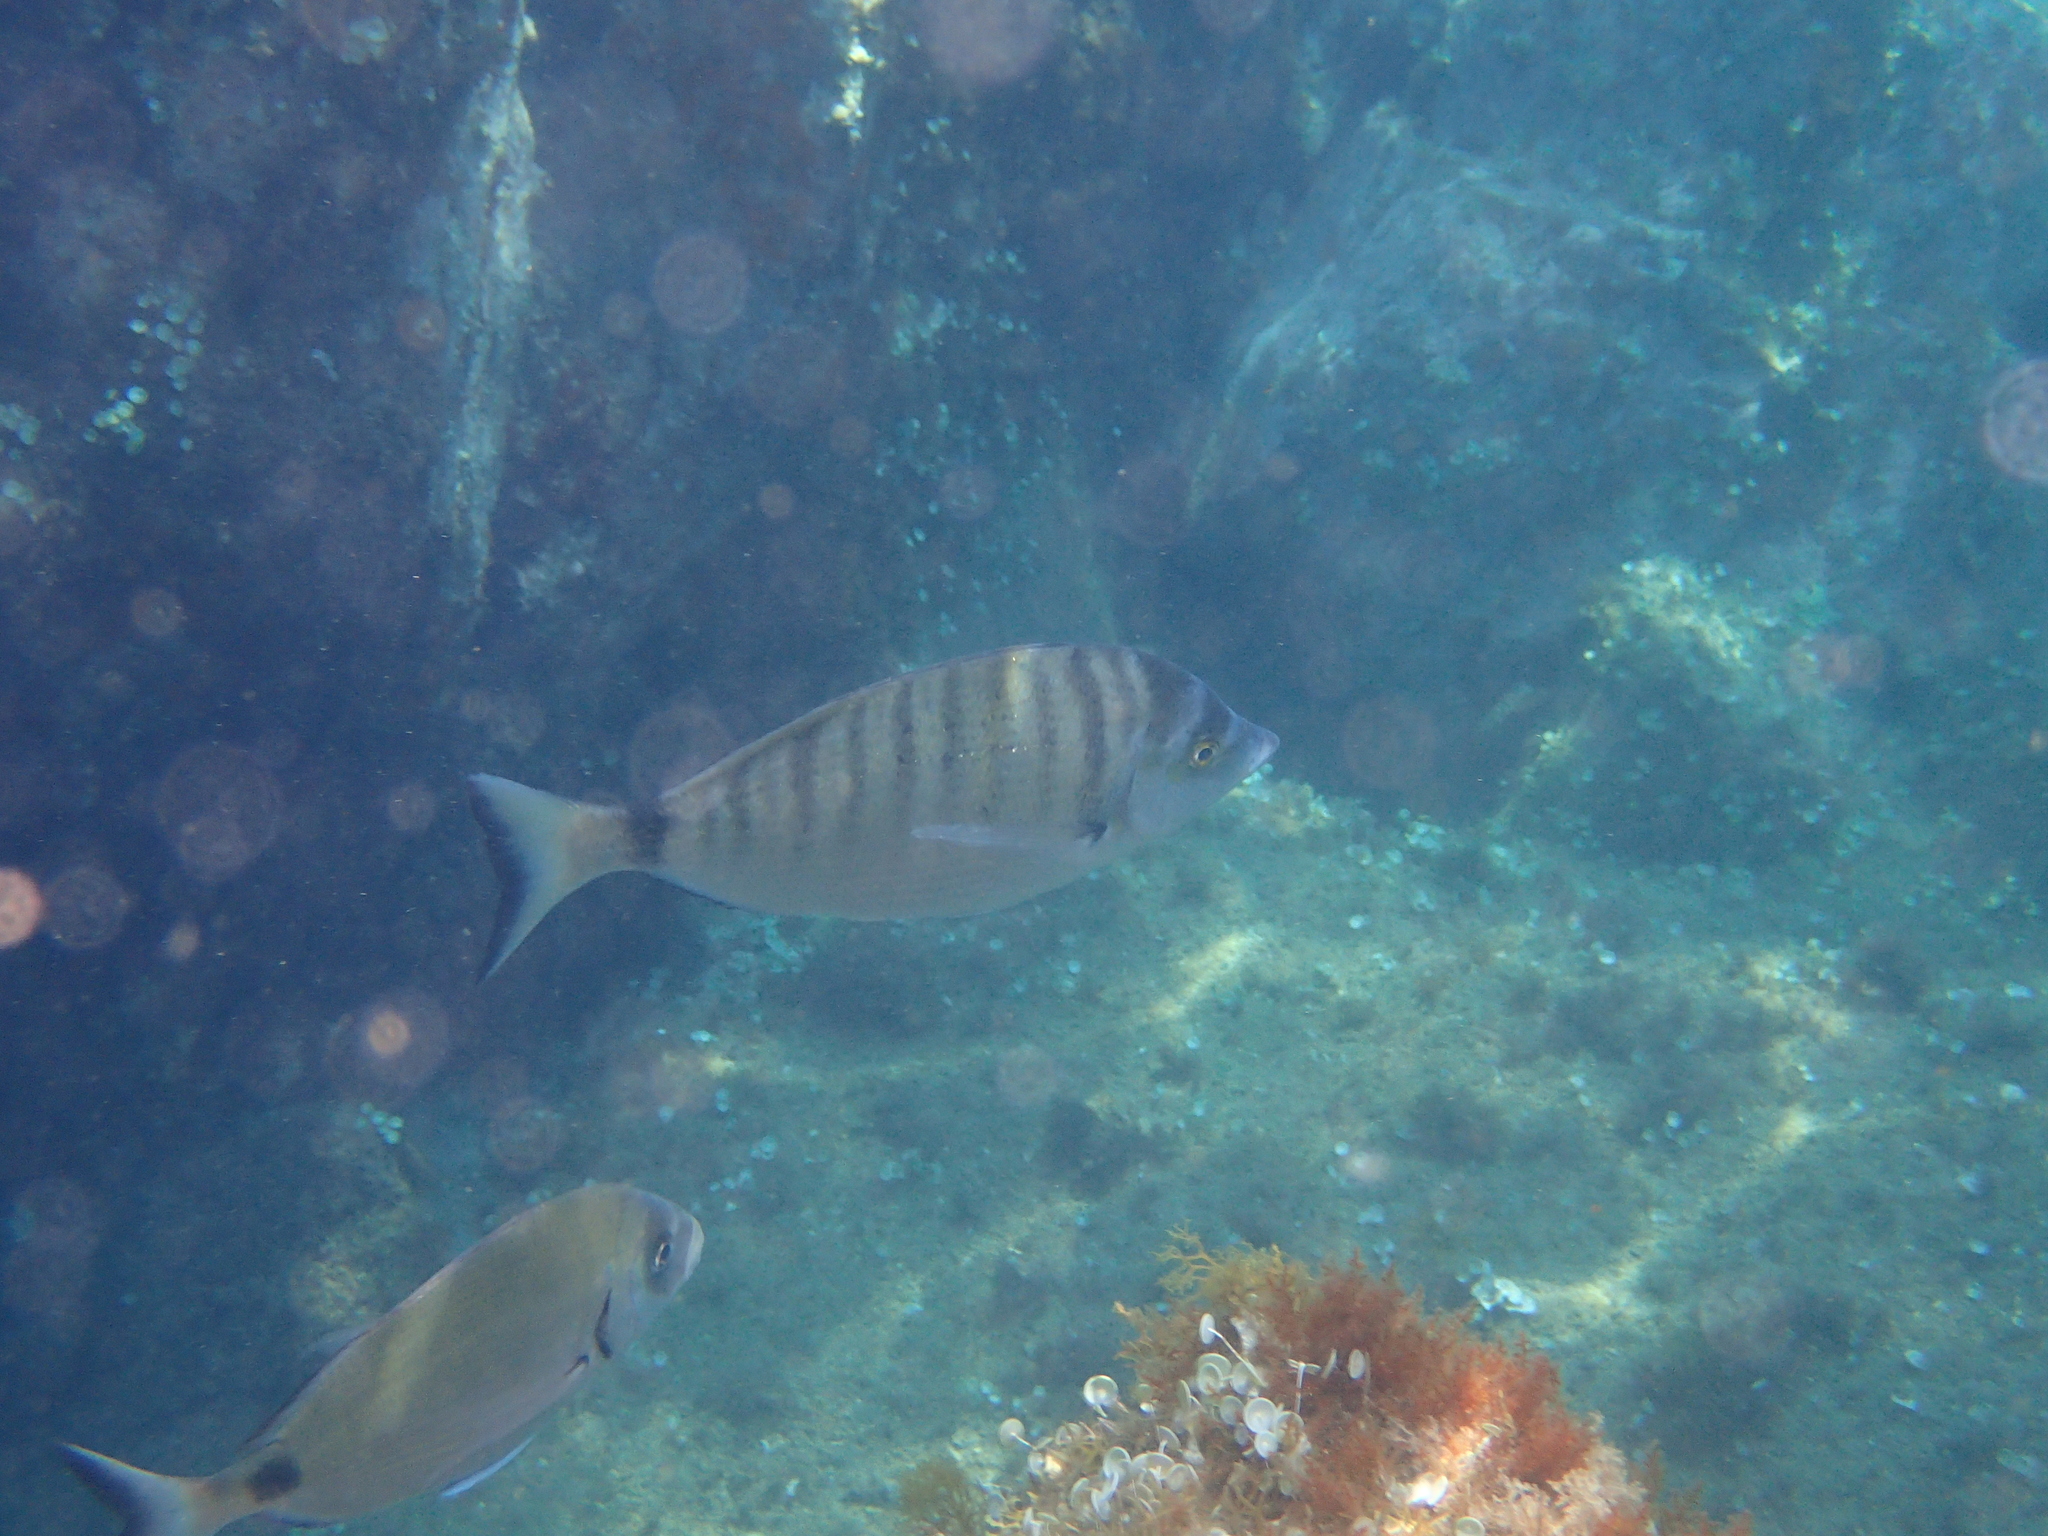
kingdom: Animalia
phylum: Chordata
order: Perciformes
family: Sparidae
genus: Diplodus
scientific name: Diplodus puntazzo
